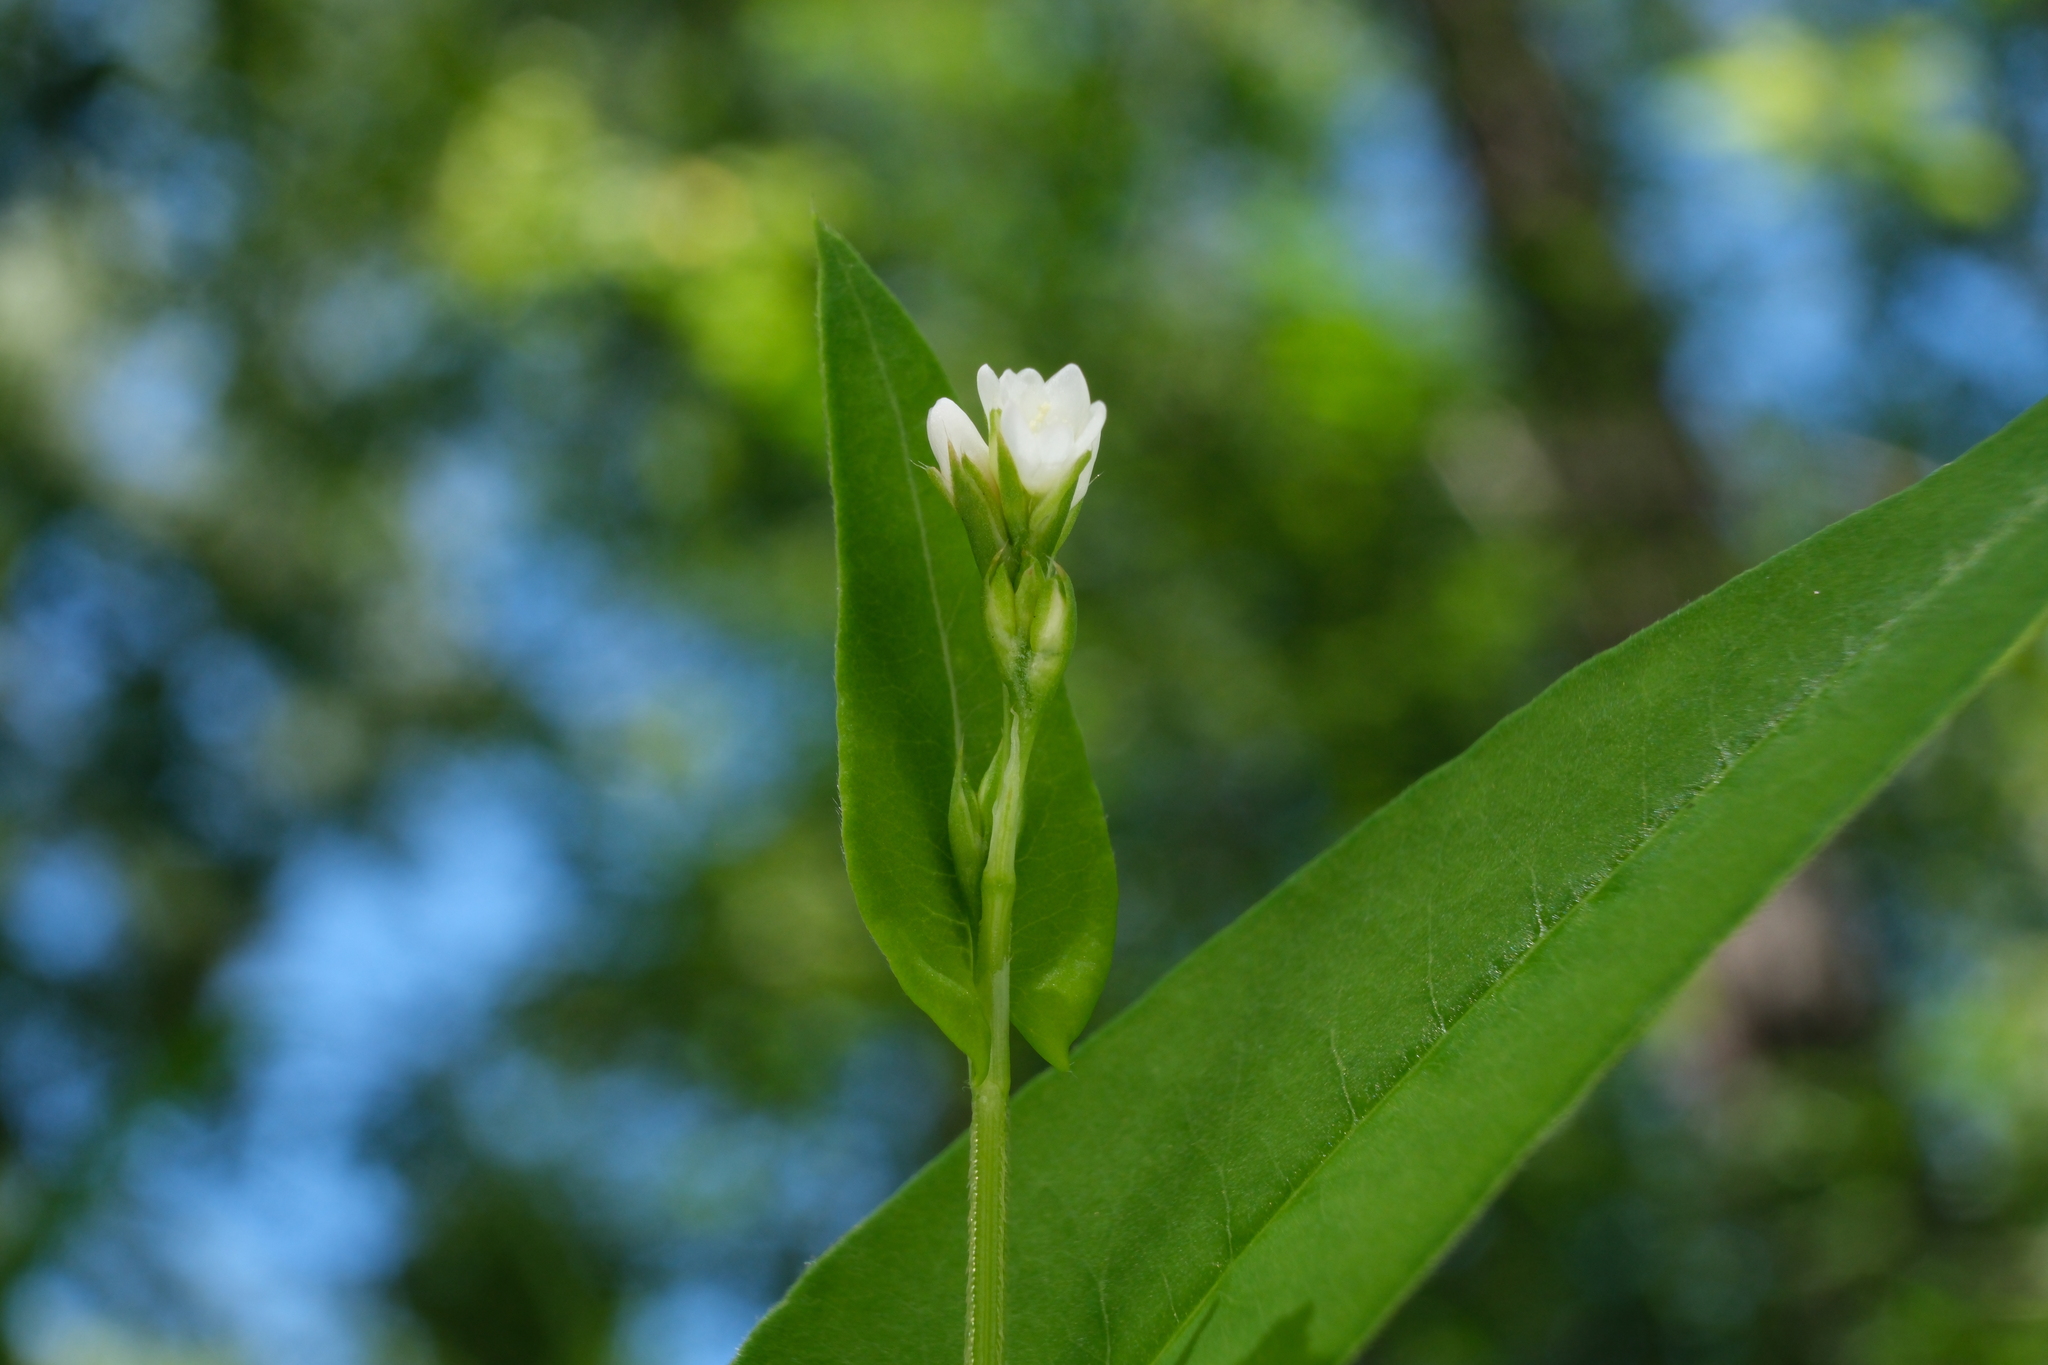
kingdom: Plantae
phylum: Tracheophyta
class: Magnoliopsida
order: Caryophyllales
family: Polygonaceae
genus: Persicaria
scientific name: Persicaria sagittata
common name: American tearthumb
